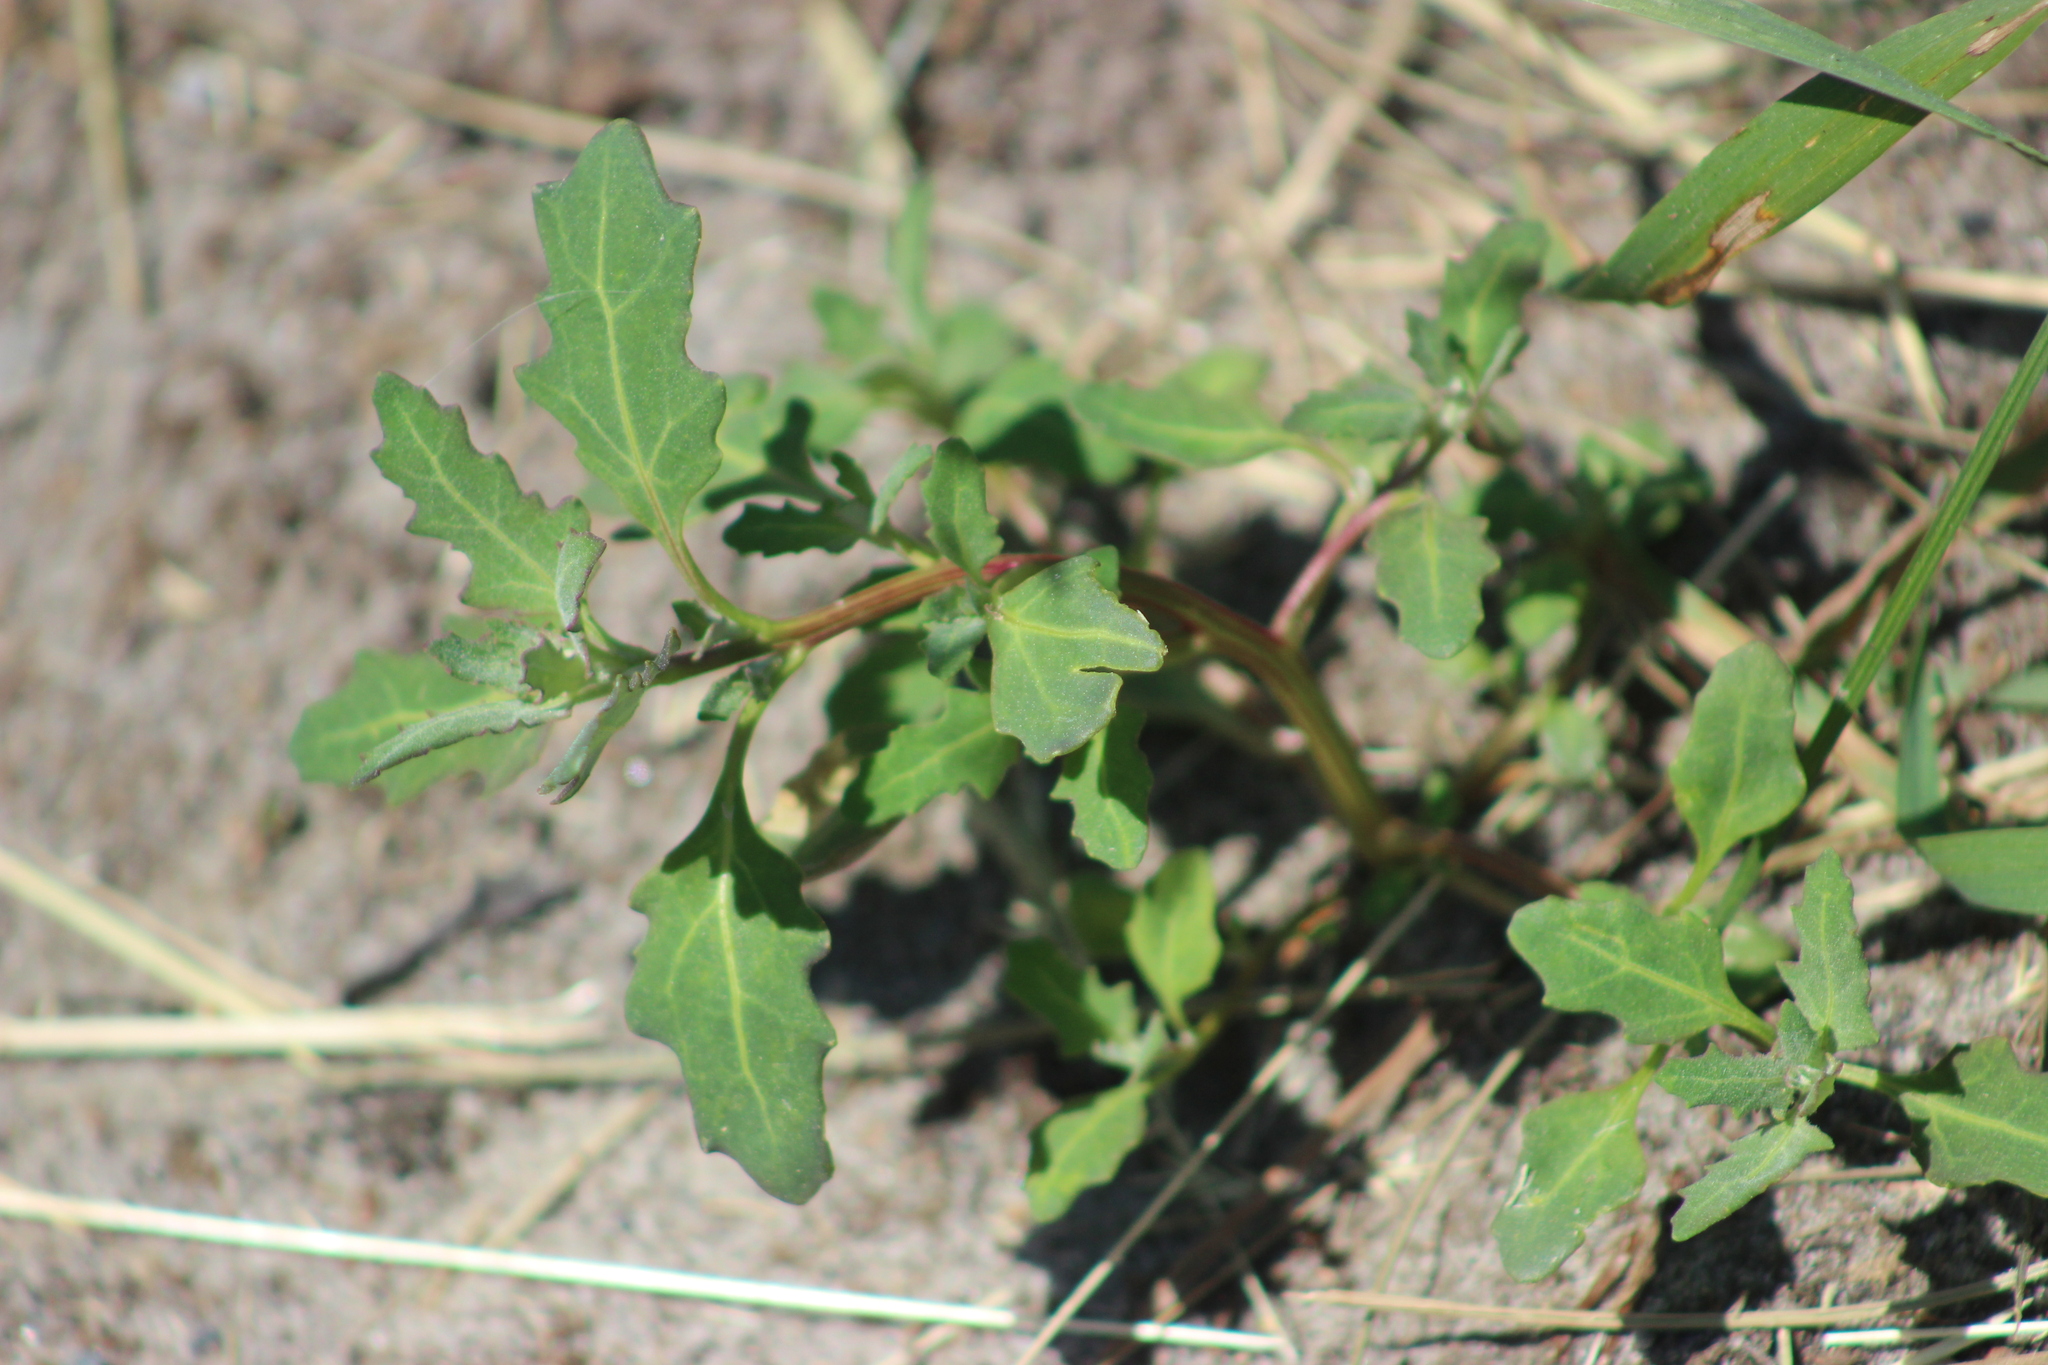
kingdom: Plantae
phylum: Tracheophyta
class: Magnoliopsida
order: Caryophyllales
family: Amaranthaceae
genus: Oxybasis
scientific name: Oxybasis glauca
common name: Glaucous goosefoot
